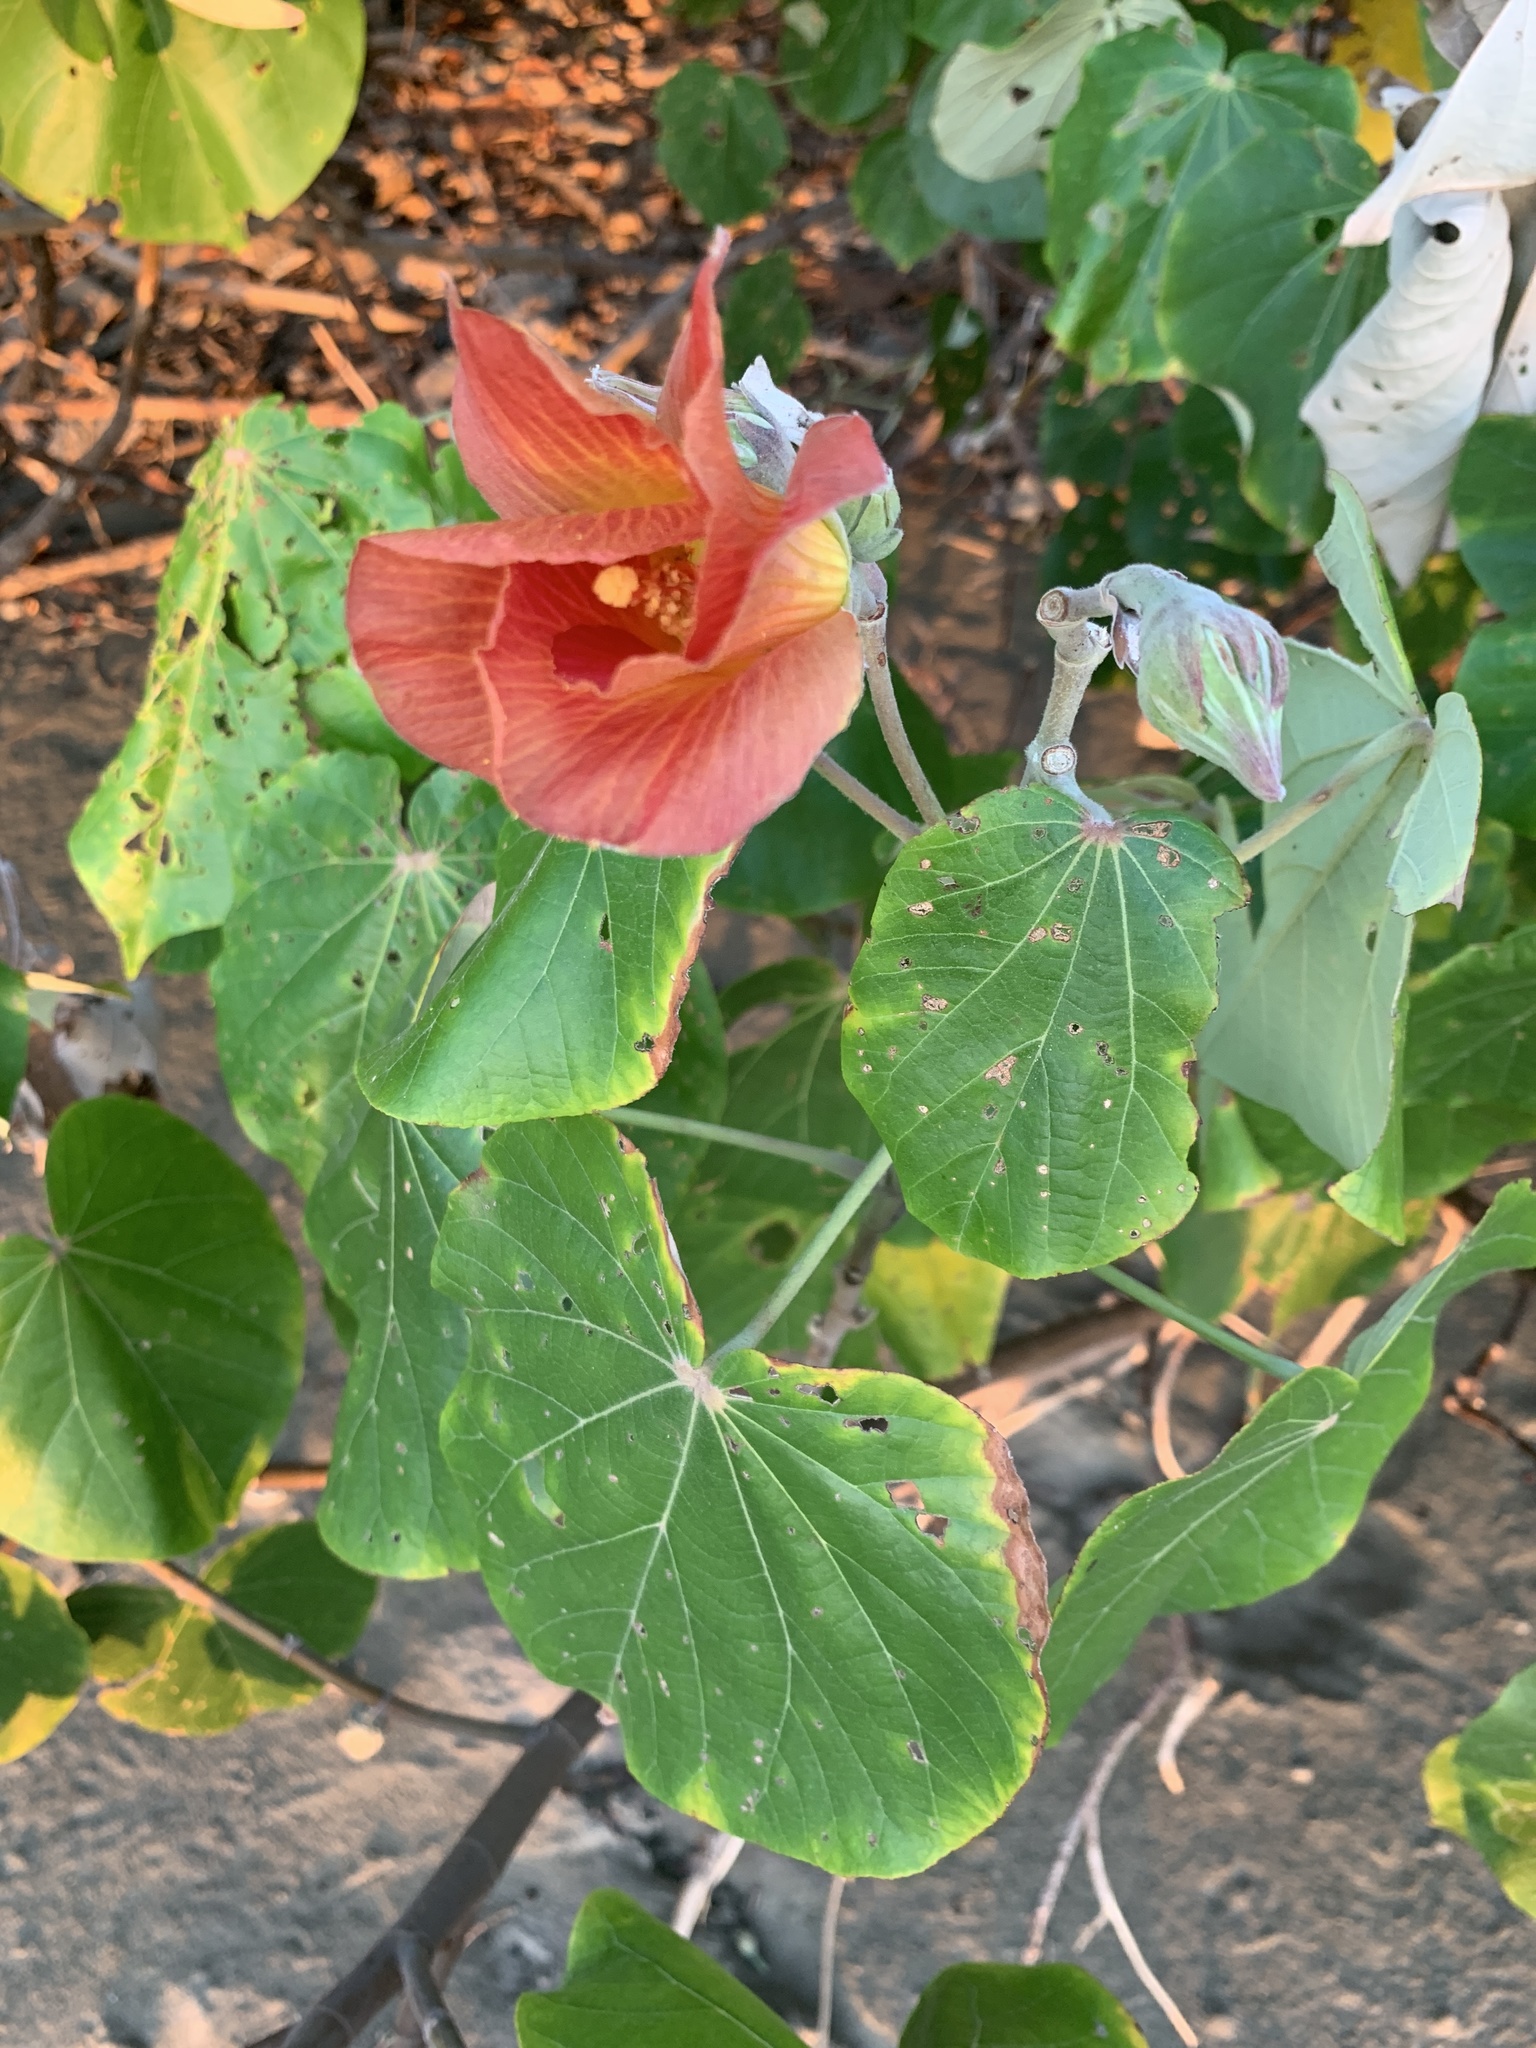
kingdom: Plantae
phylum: Tracheophyta
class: Magnoliopsida
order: Malvales
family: Malvaceae
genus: Talipariti
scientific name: Talipariti tiliaceum
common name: Sea hibiscus
